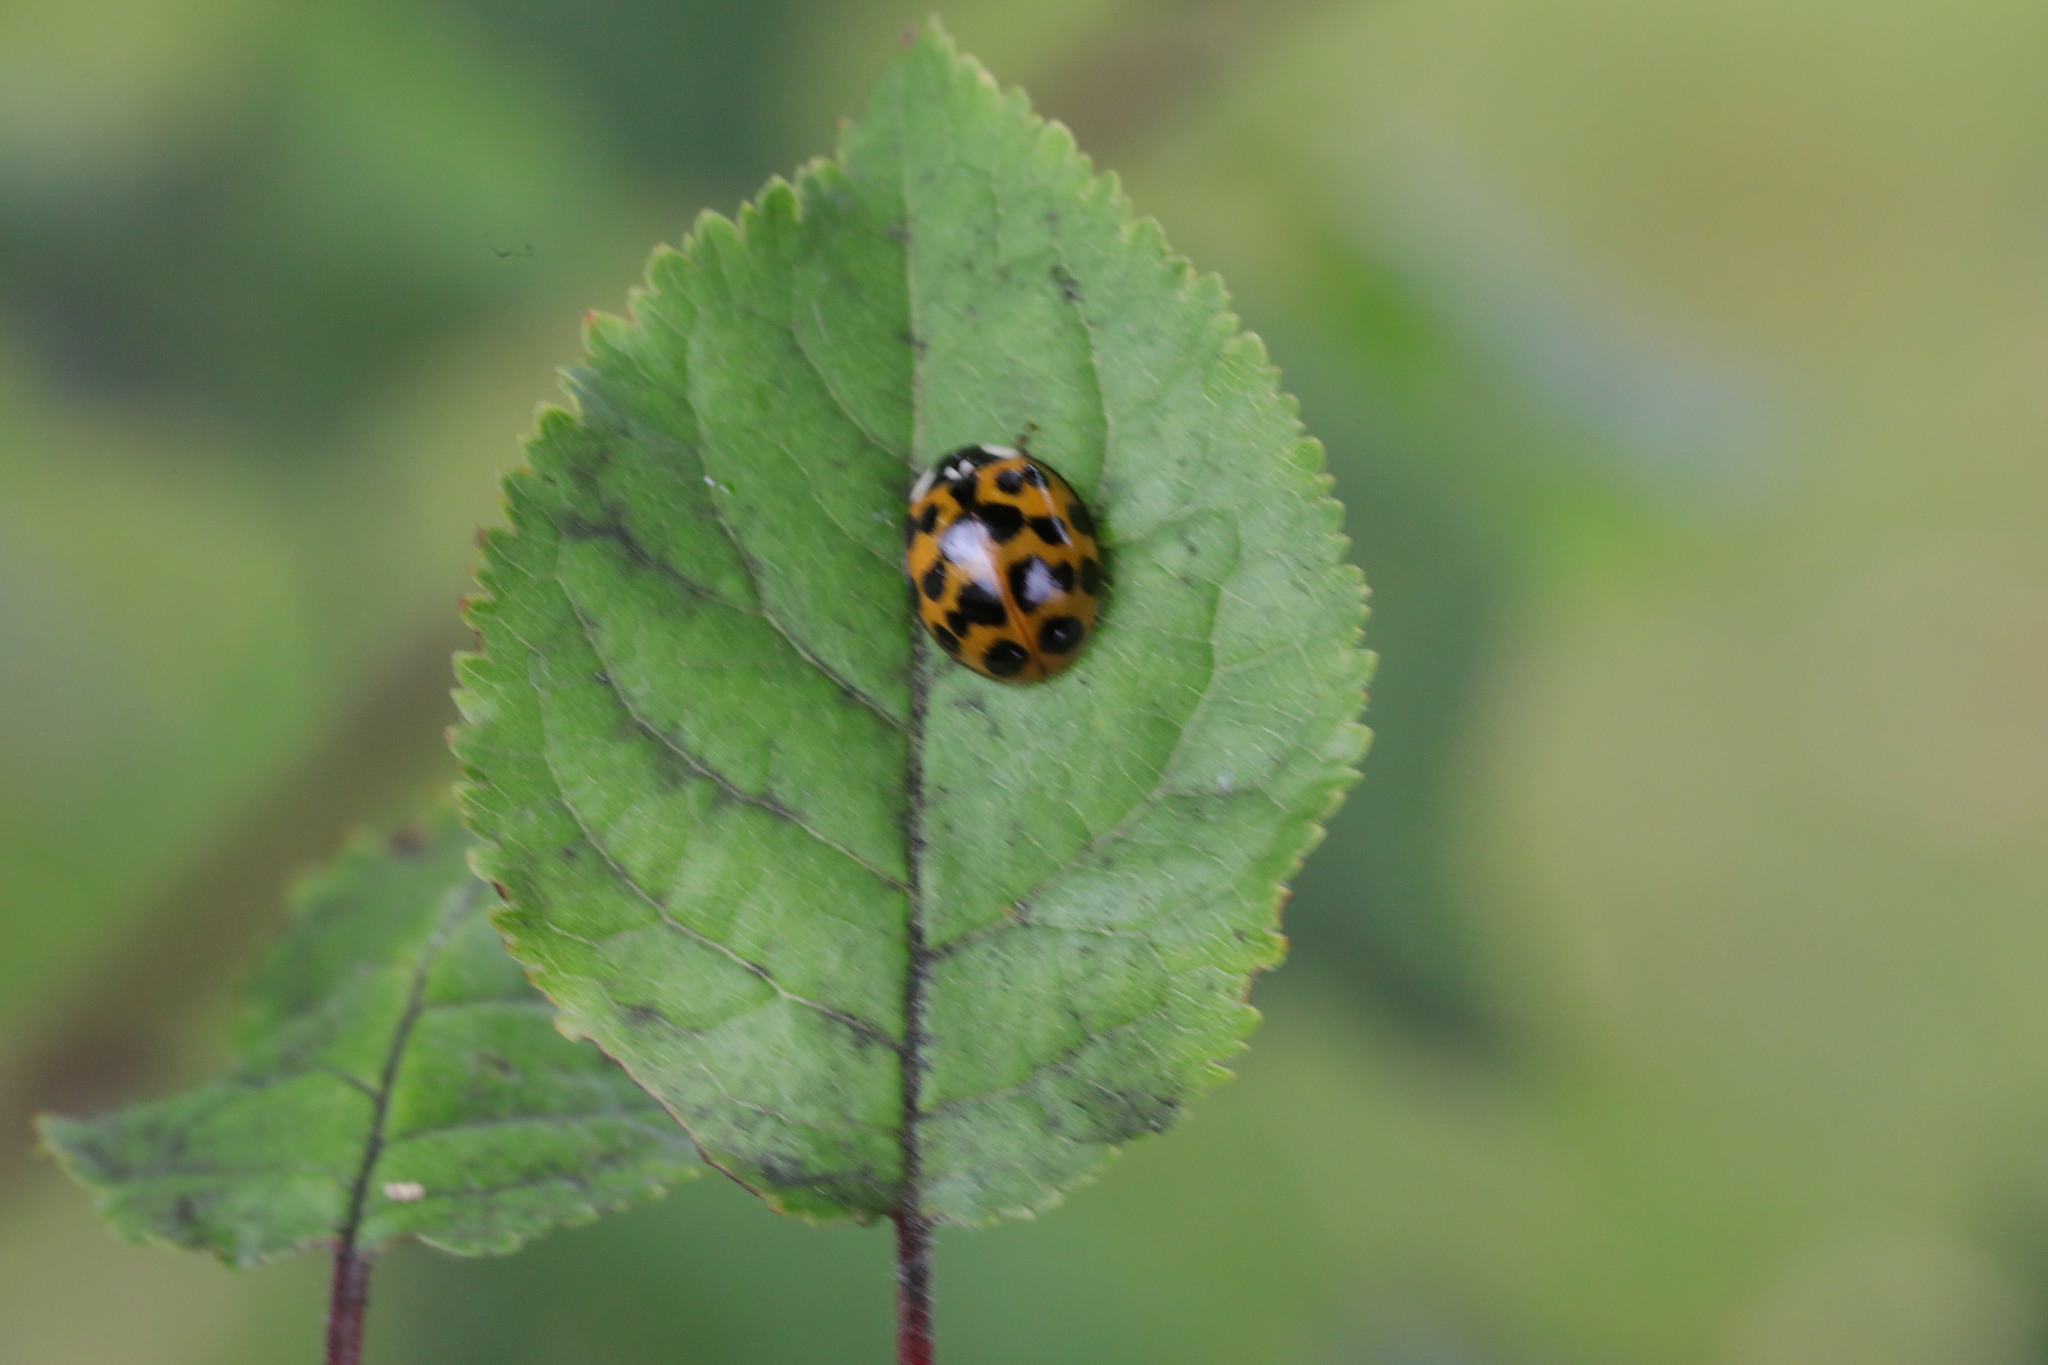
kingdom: Animalia
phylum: Arthropoda
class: Insecta
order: Coleoptera
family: Coccinellidae
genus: Harmonia
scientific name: Harmonia axyridis
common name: Harlequin ladybird
